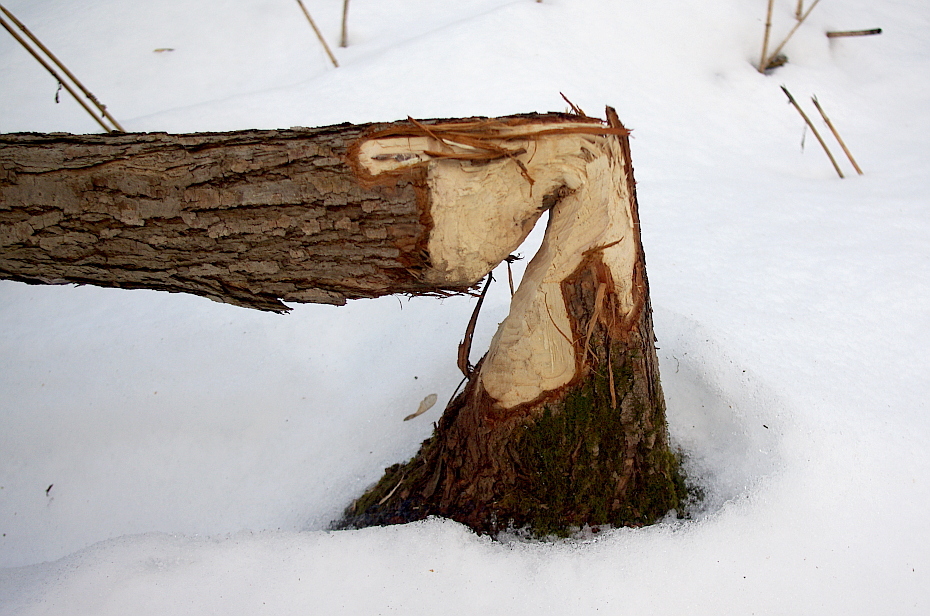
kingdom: Animalia
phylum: Chordata
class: Mammalia
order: Rodentia
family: Castoridae
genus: Castor
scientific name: Castor fiber
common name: Eurasian beaver
